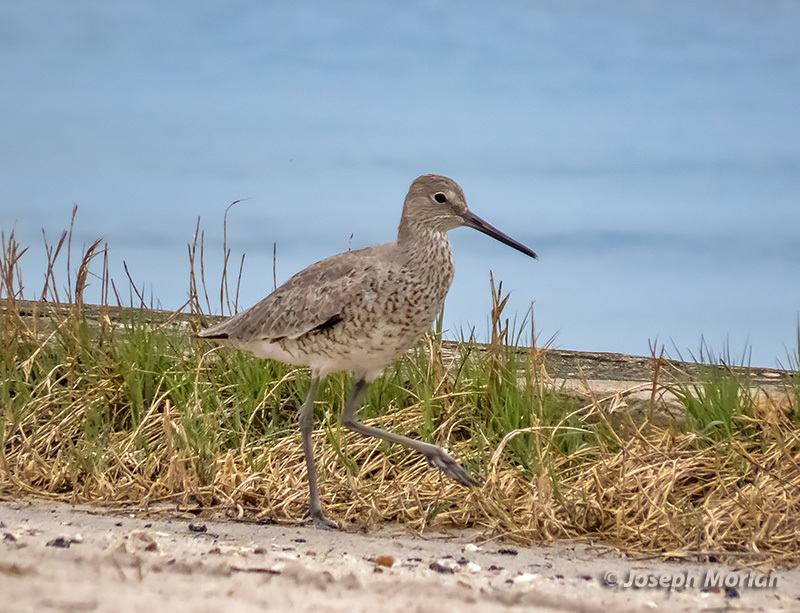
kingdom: Animalia
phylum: Chordata
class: Aves
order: Charadriiformes
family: Scolopacidae
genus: Tringa
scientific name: Tringa semipalmata
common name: Willet
